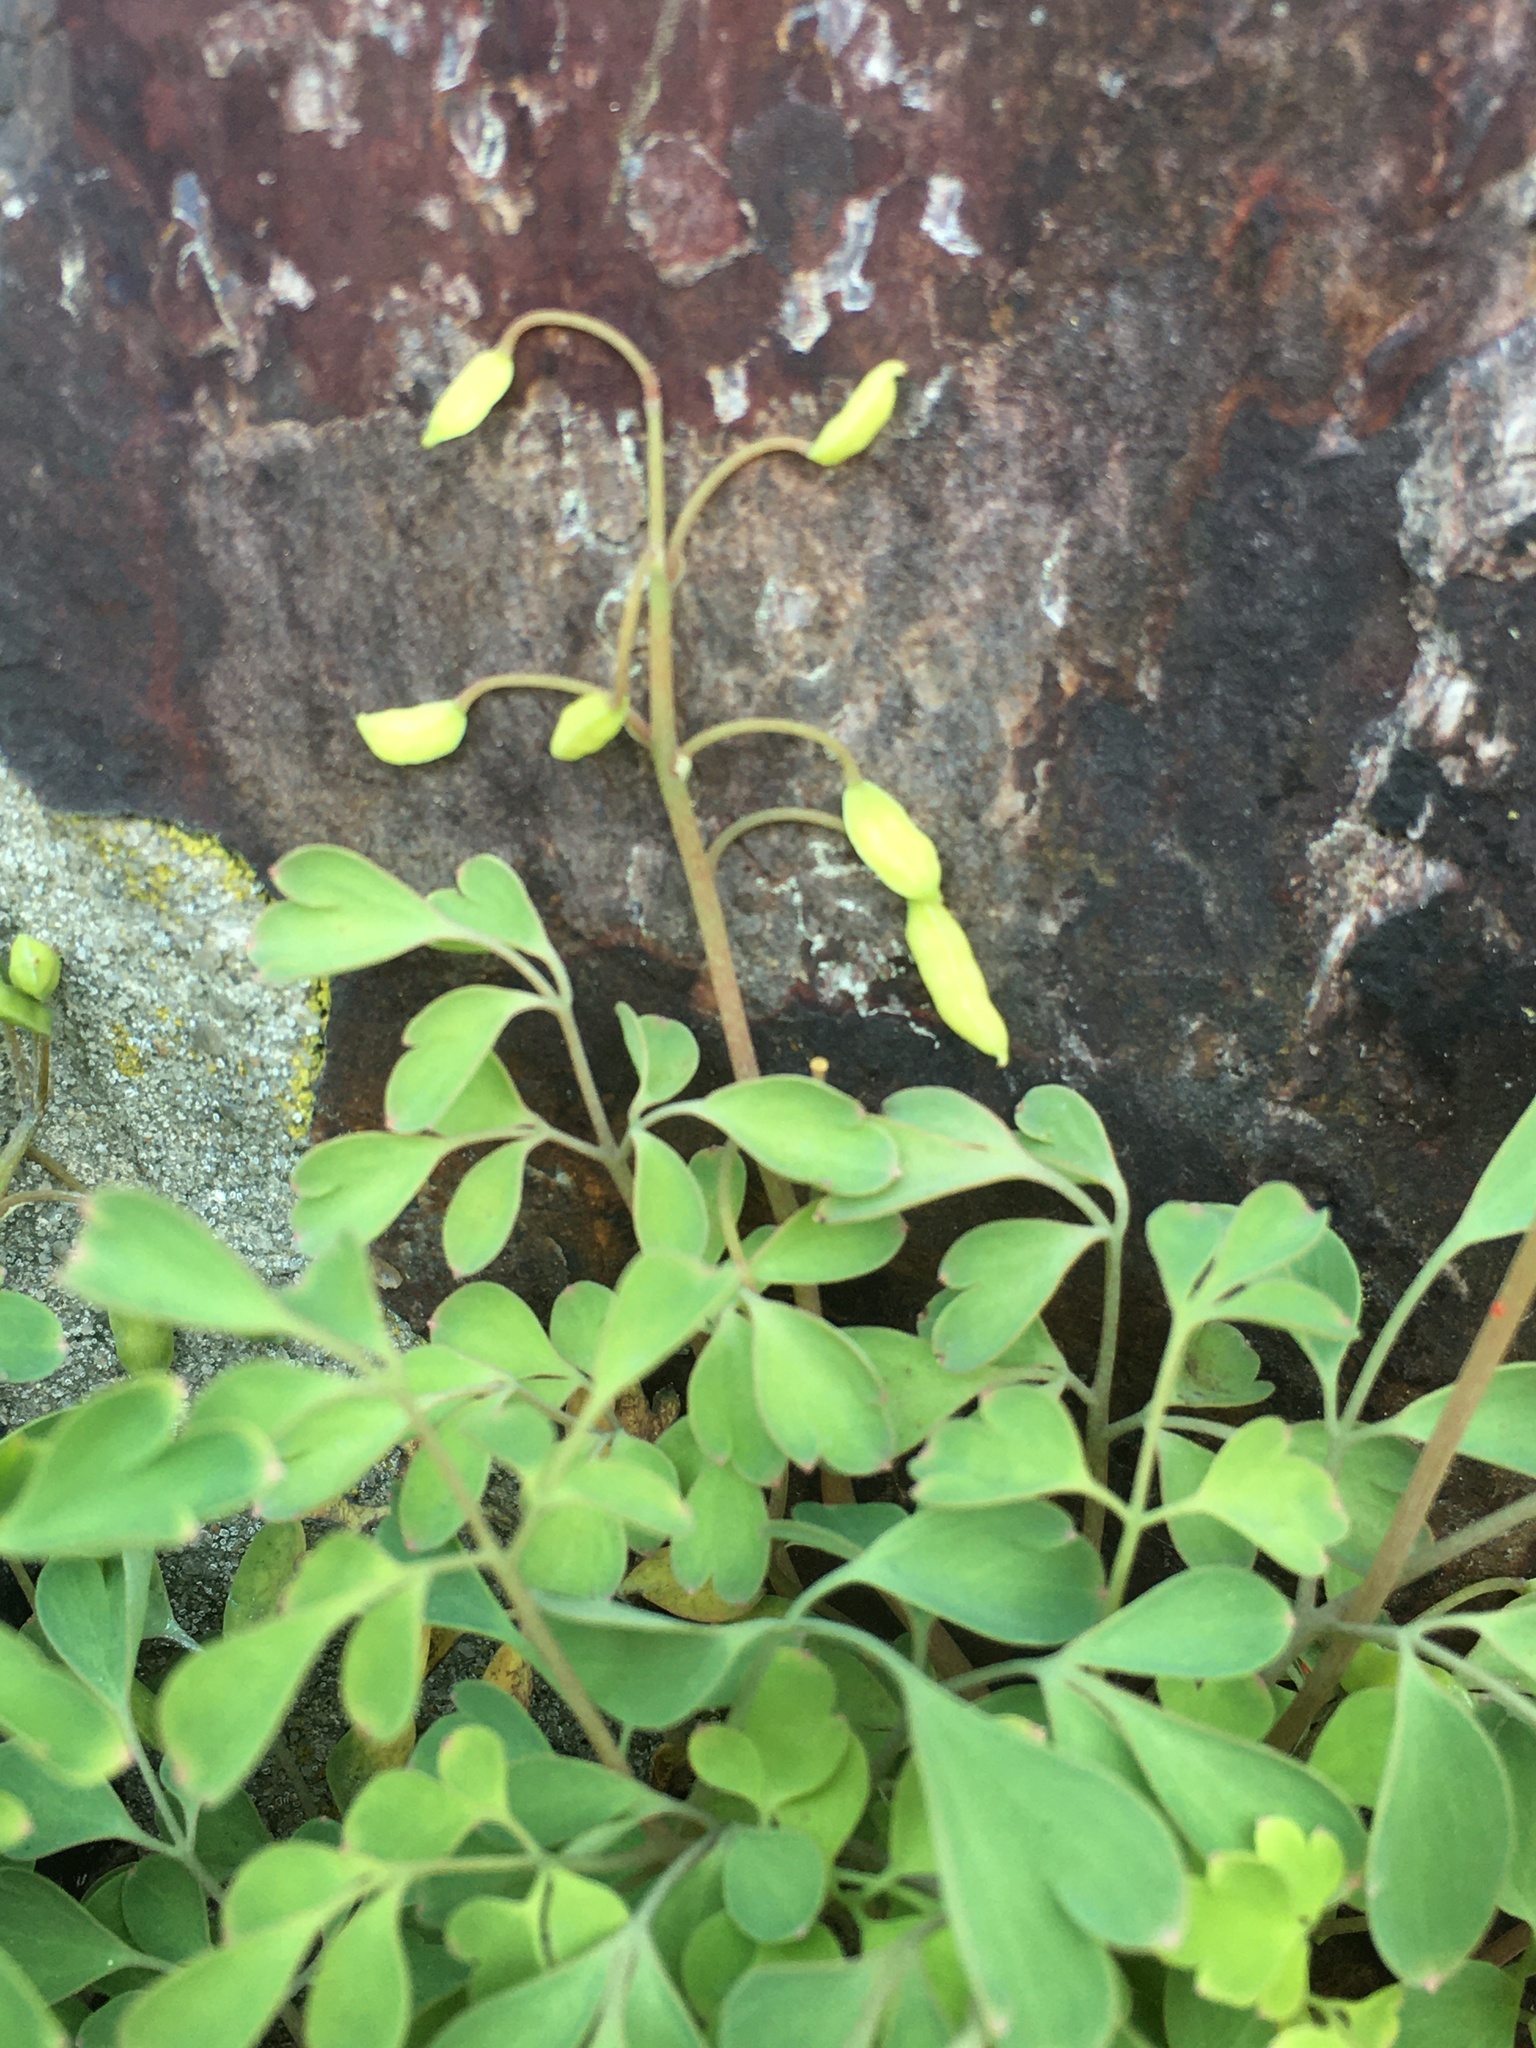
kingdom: Plantae
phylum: Tracheophyta
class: Magnoliopsida
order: Ranunculales
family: Papaveraceae
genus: Pseudofumaria
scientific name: Pseudofumaria lutea
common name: Yellow corydalis
